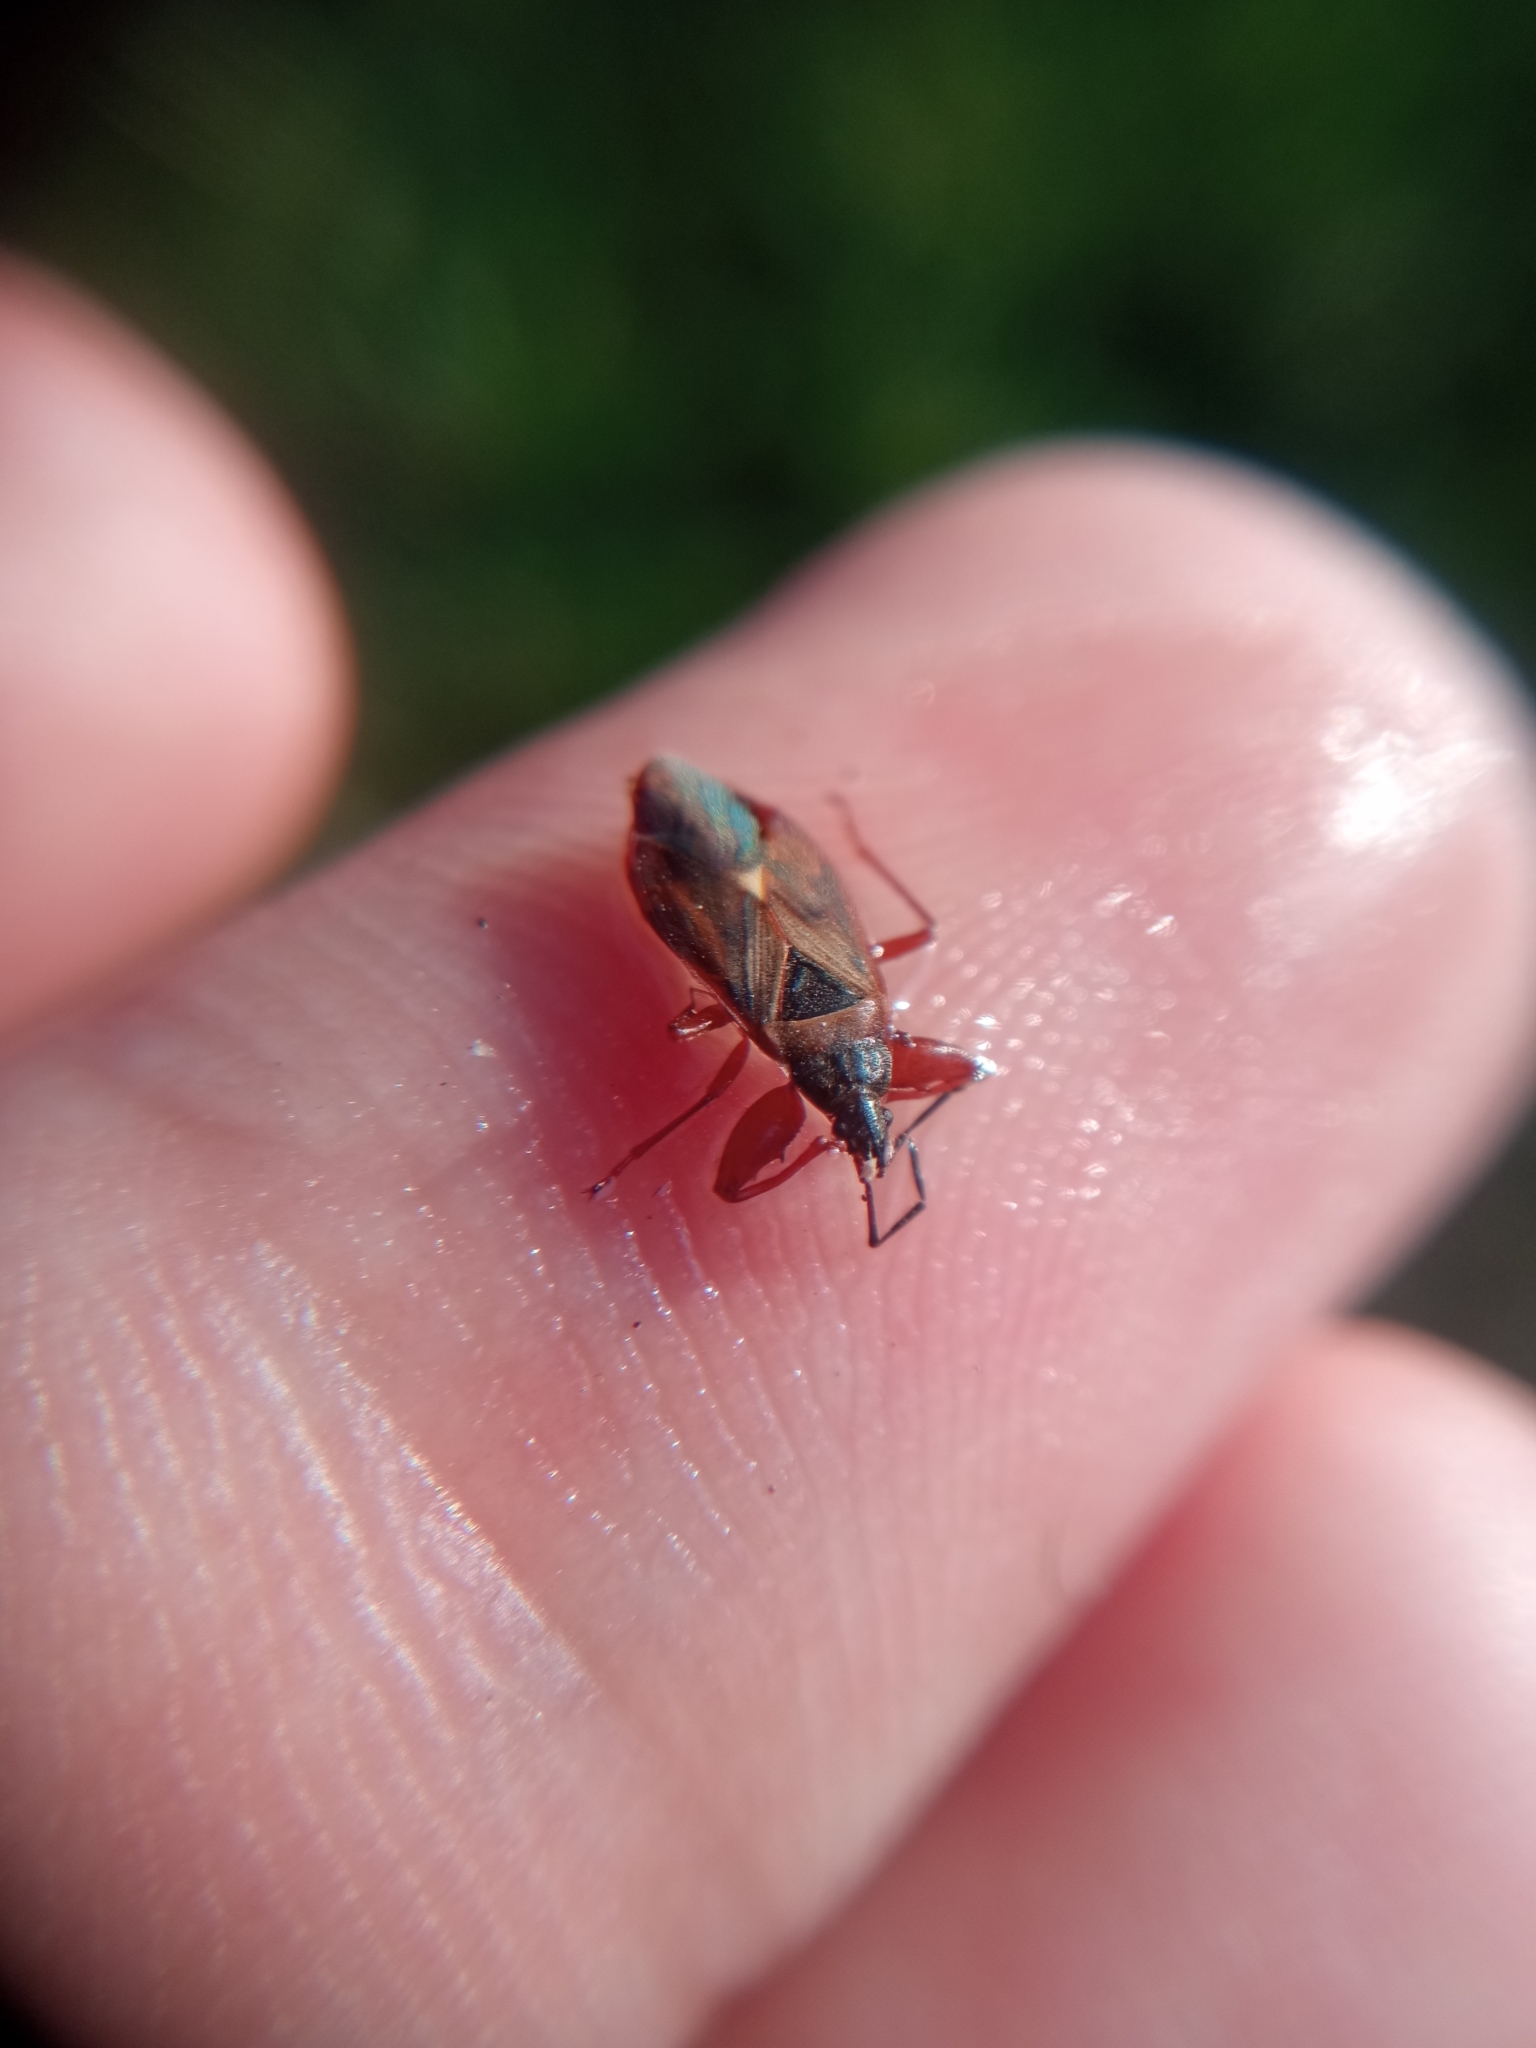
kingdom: Animalia
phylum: Arthropoda
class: Insecta
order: Hemiptera
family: Rhyparochromidae
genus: Gastrodes
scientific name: Gastrodes abietum
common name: Spruce cone bug
